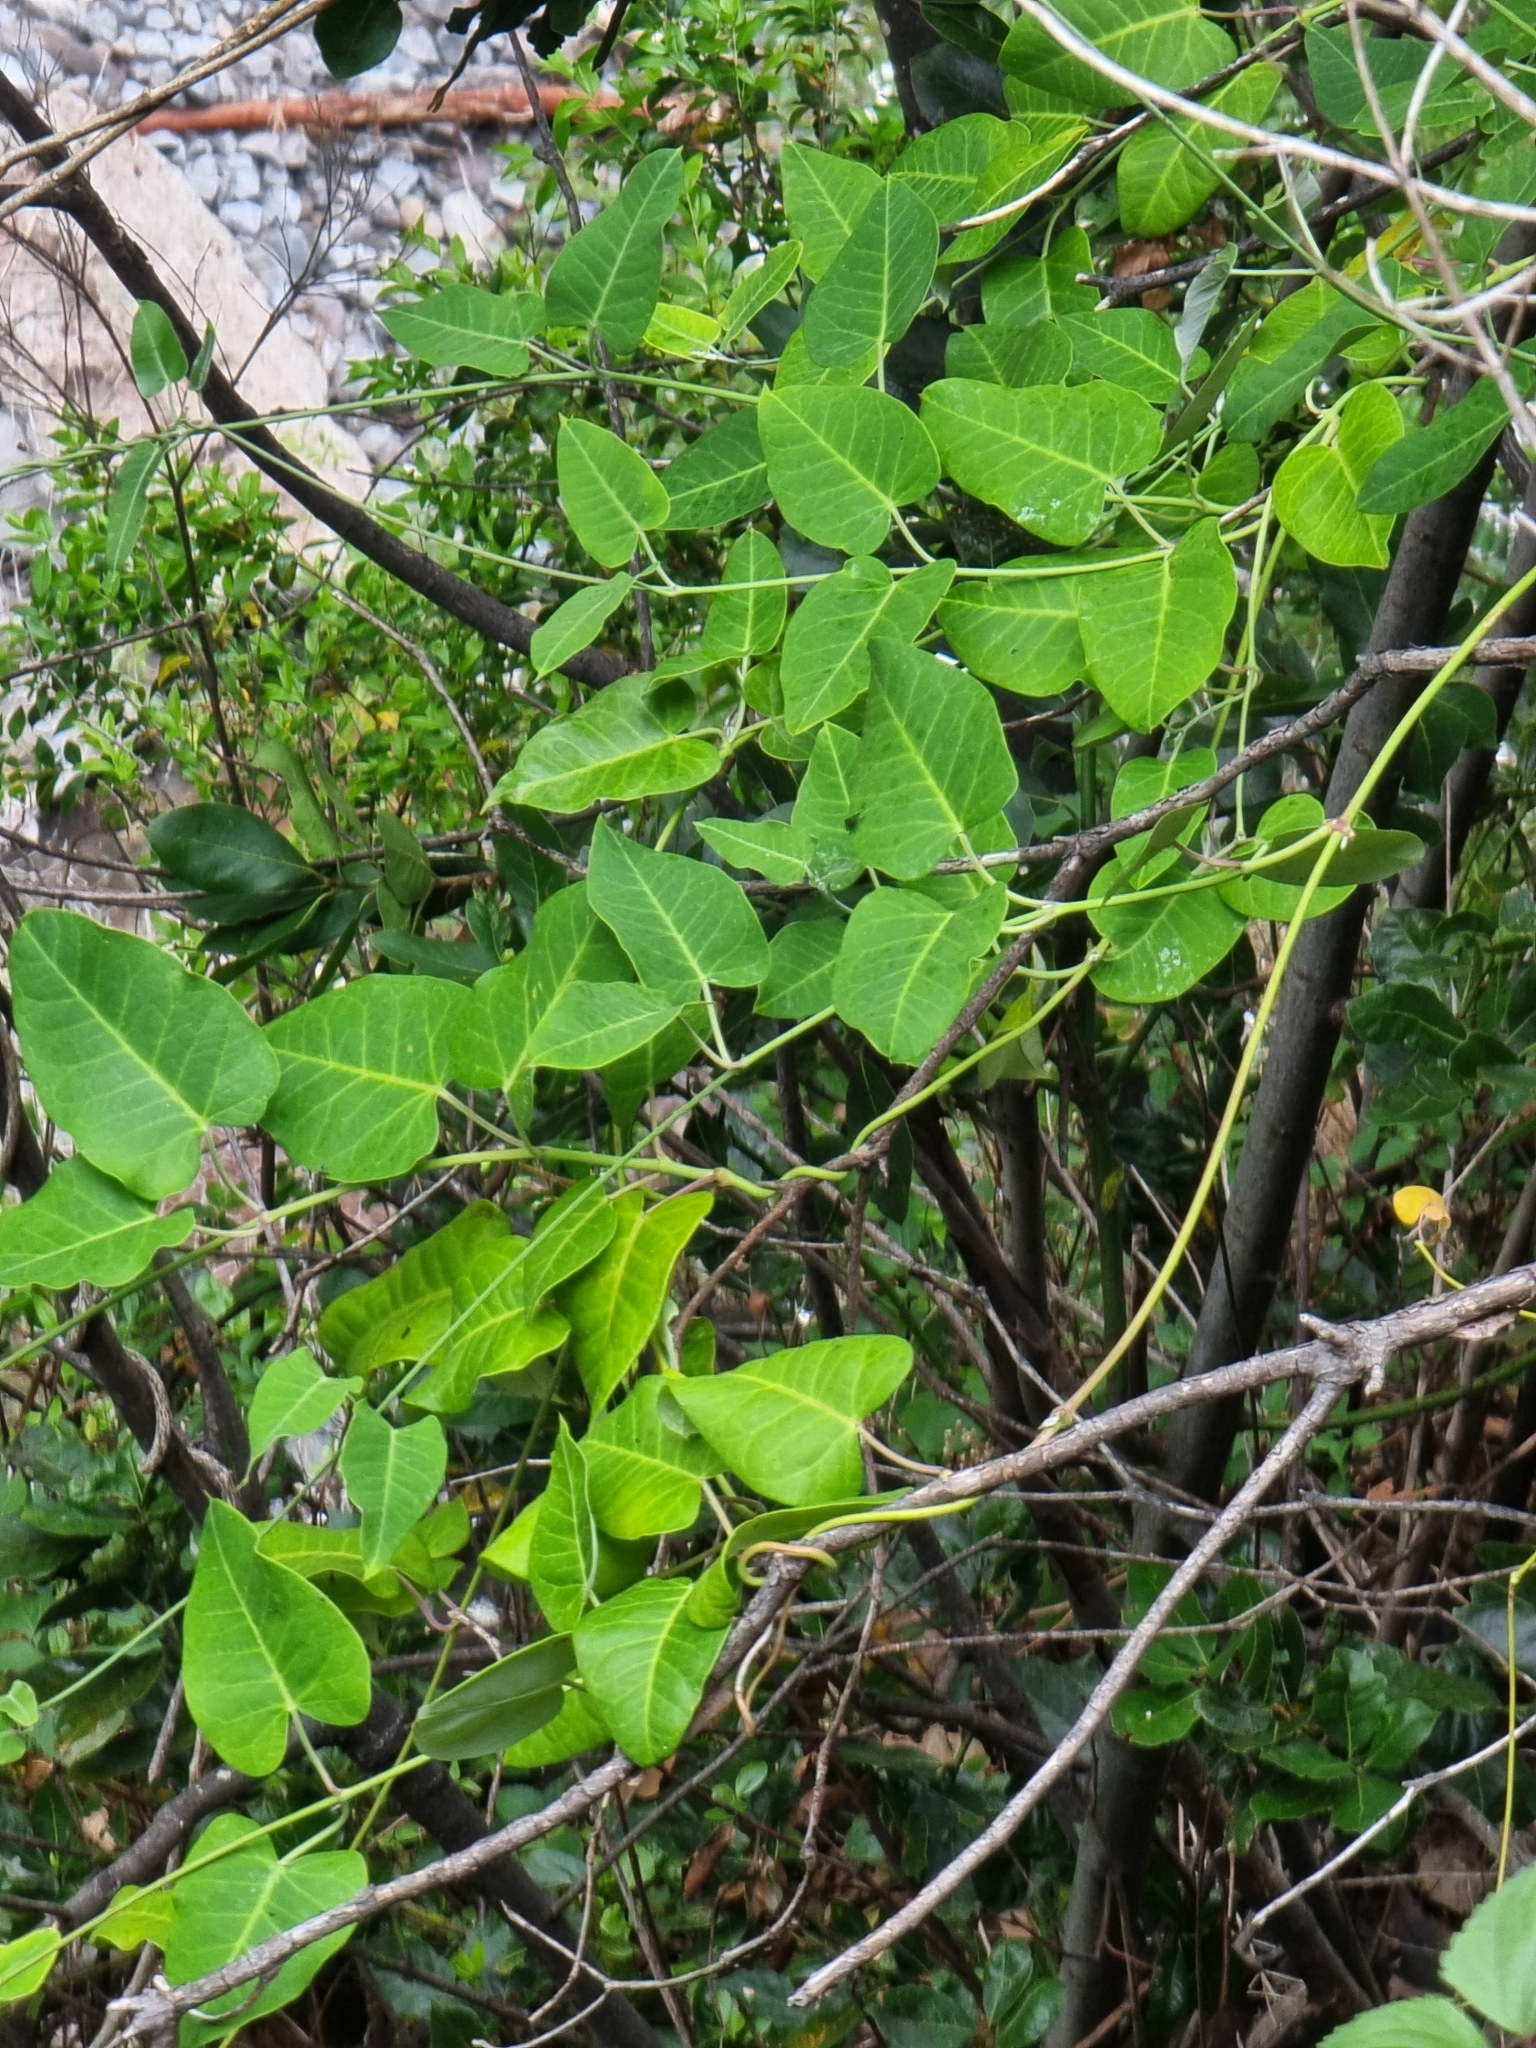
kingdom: Plantae
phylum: Tracheophyta
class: Magnoliopsida
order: Gentianales
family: Apocynaceae
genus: Araujia
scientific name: Araujia sericifera
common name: White bladderflower
